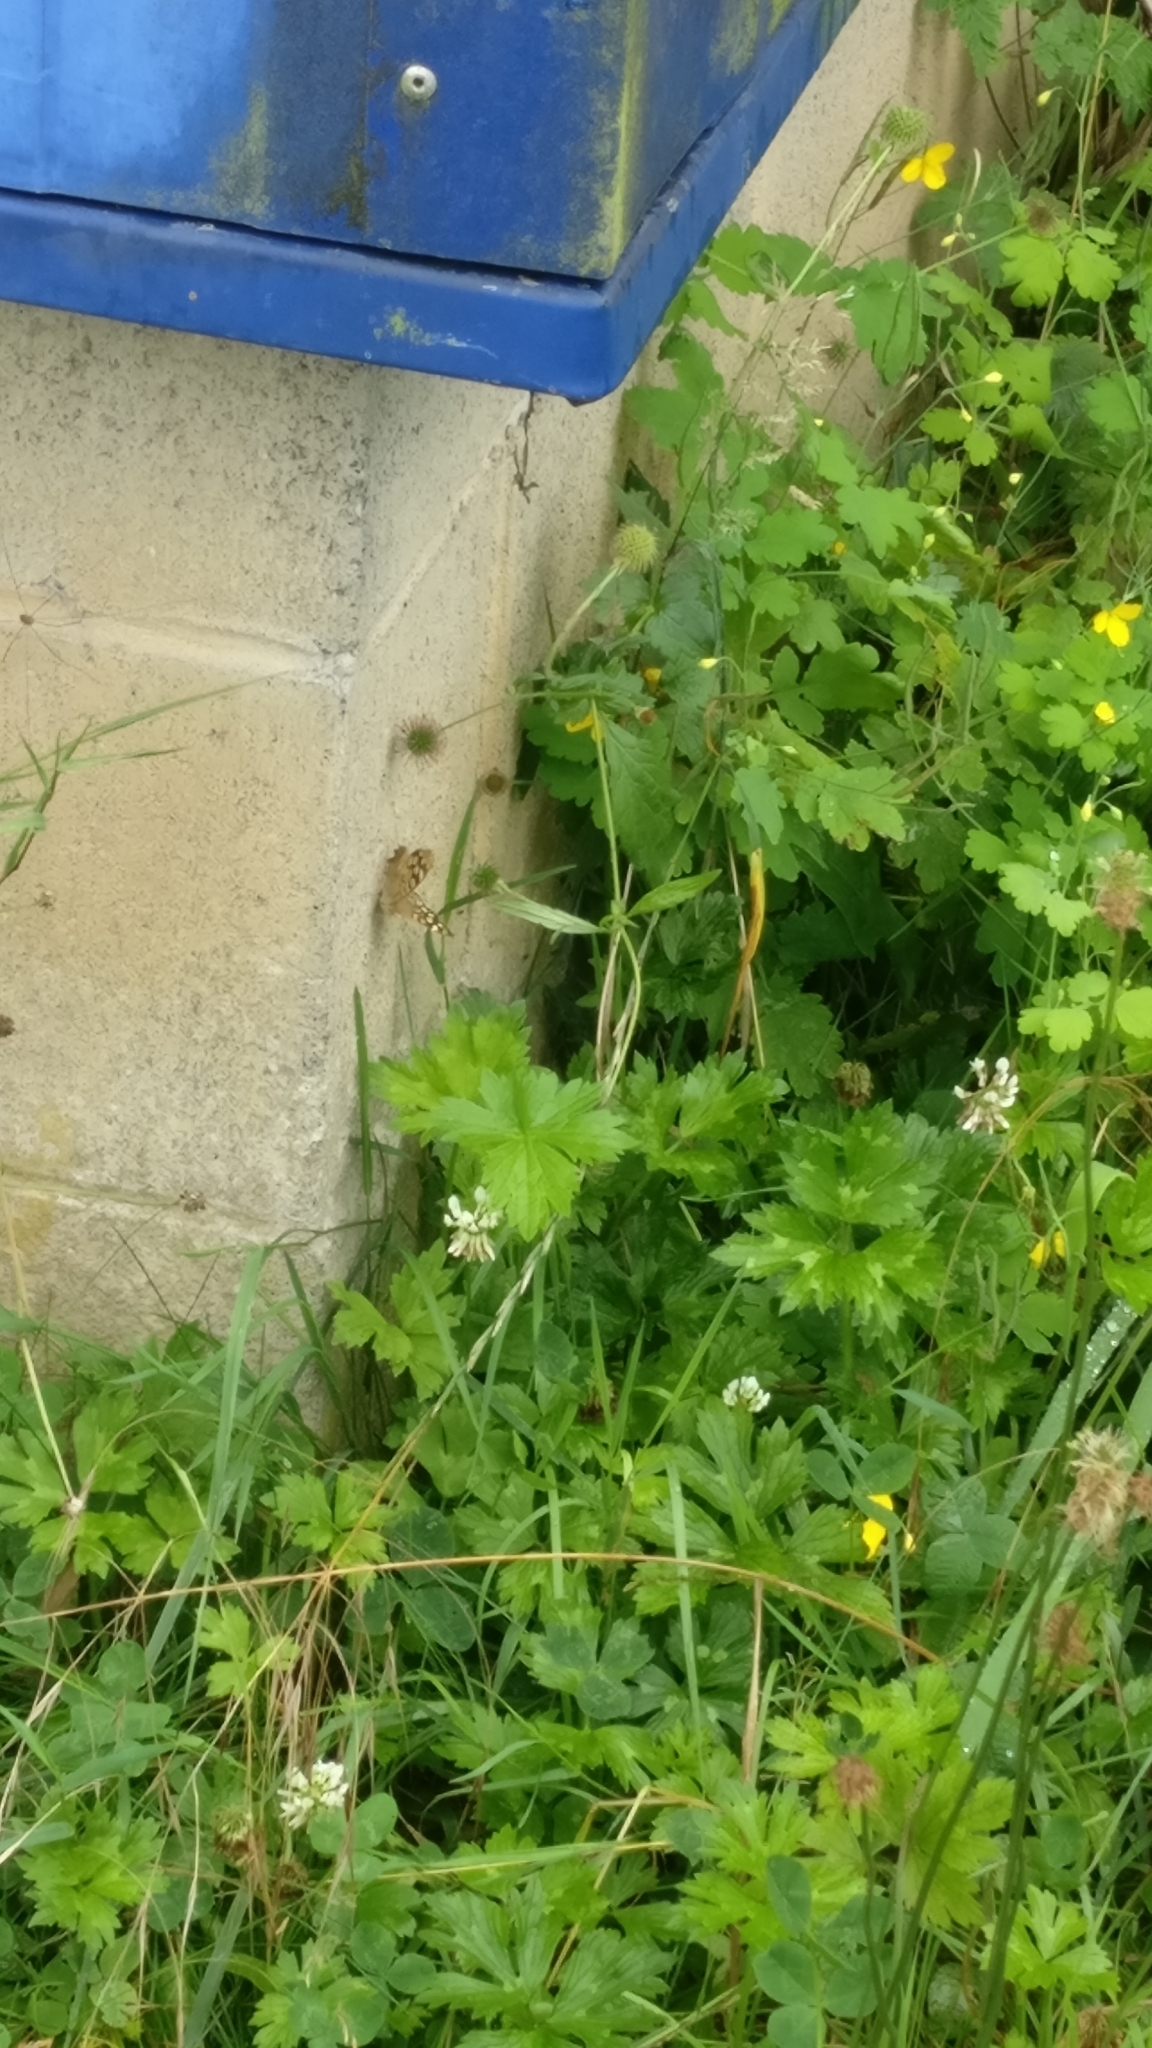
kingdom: Animalia
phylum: Arthropoda
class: Insecta
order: Lepidoptera
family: Nymphalidae
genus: Pararge
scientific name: Pararge aegeria
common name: Speckled wood
